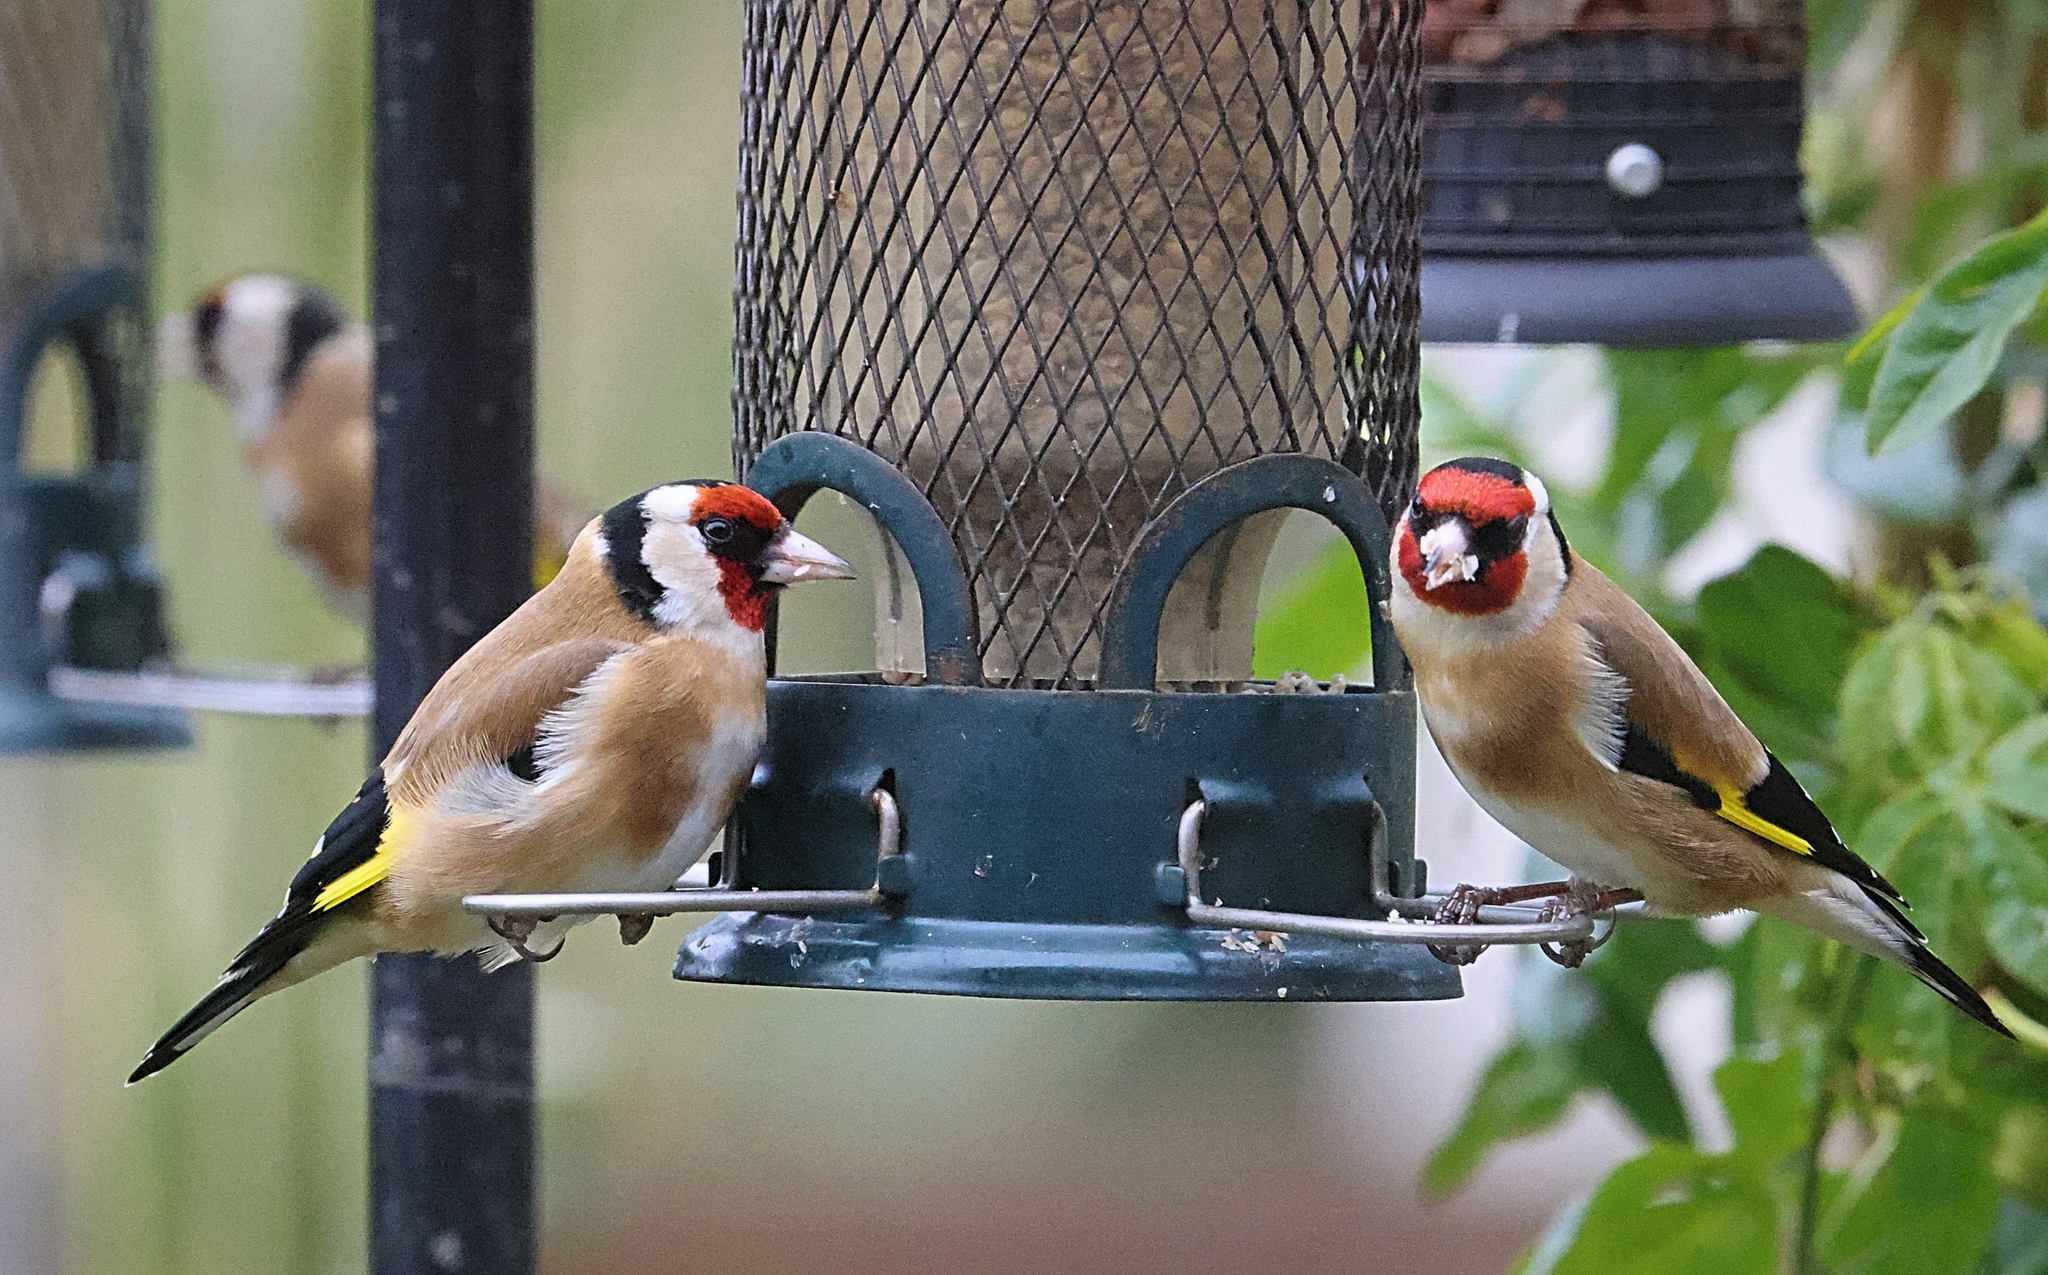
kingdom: Animalia
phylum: Chordata
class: Aves
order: Passeriformes
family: Fringillidae
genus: Carduelis
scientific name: Carduelis carduelis
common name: European goldfinch
